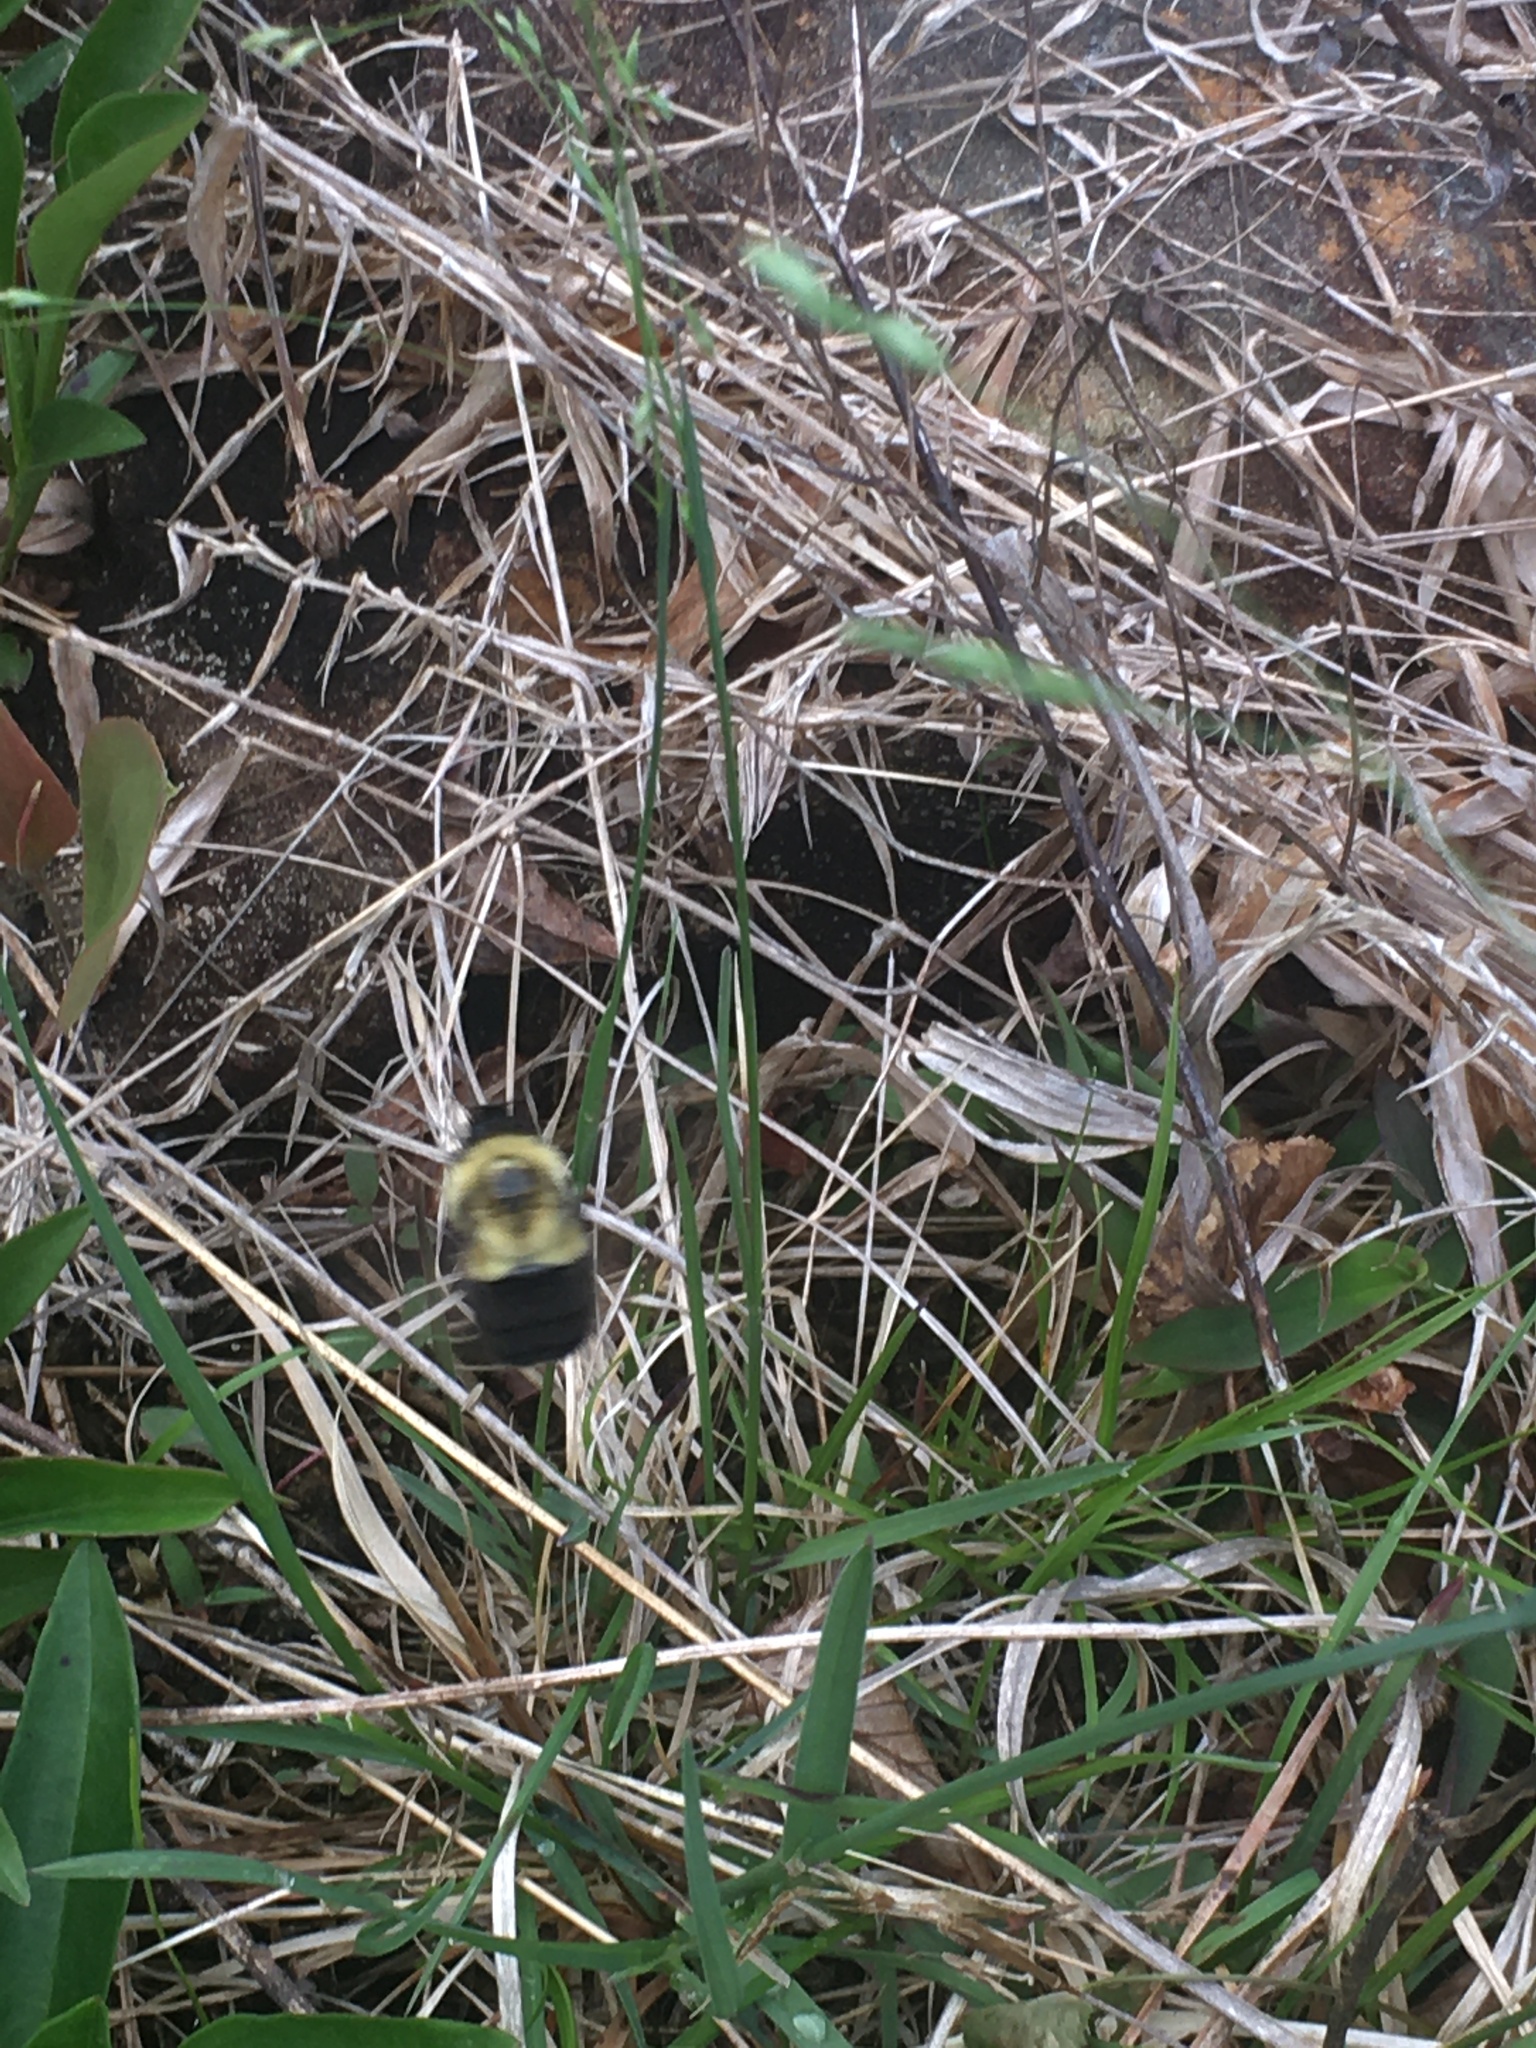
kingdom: Animalia
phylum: Arthropoda
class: Insecta
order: Hymenoptera
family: Apidae
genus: Bombus
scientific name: Bombus impatiens
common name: Common eastern bumble bee
